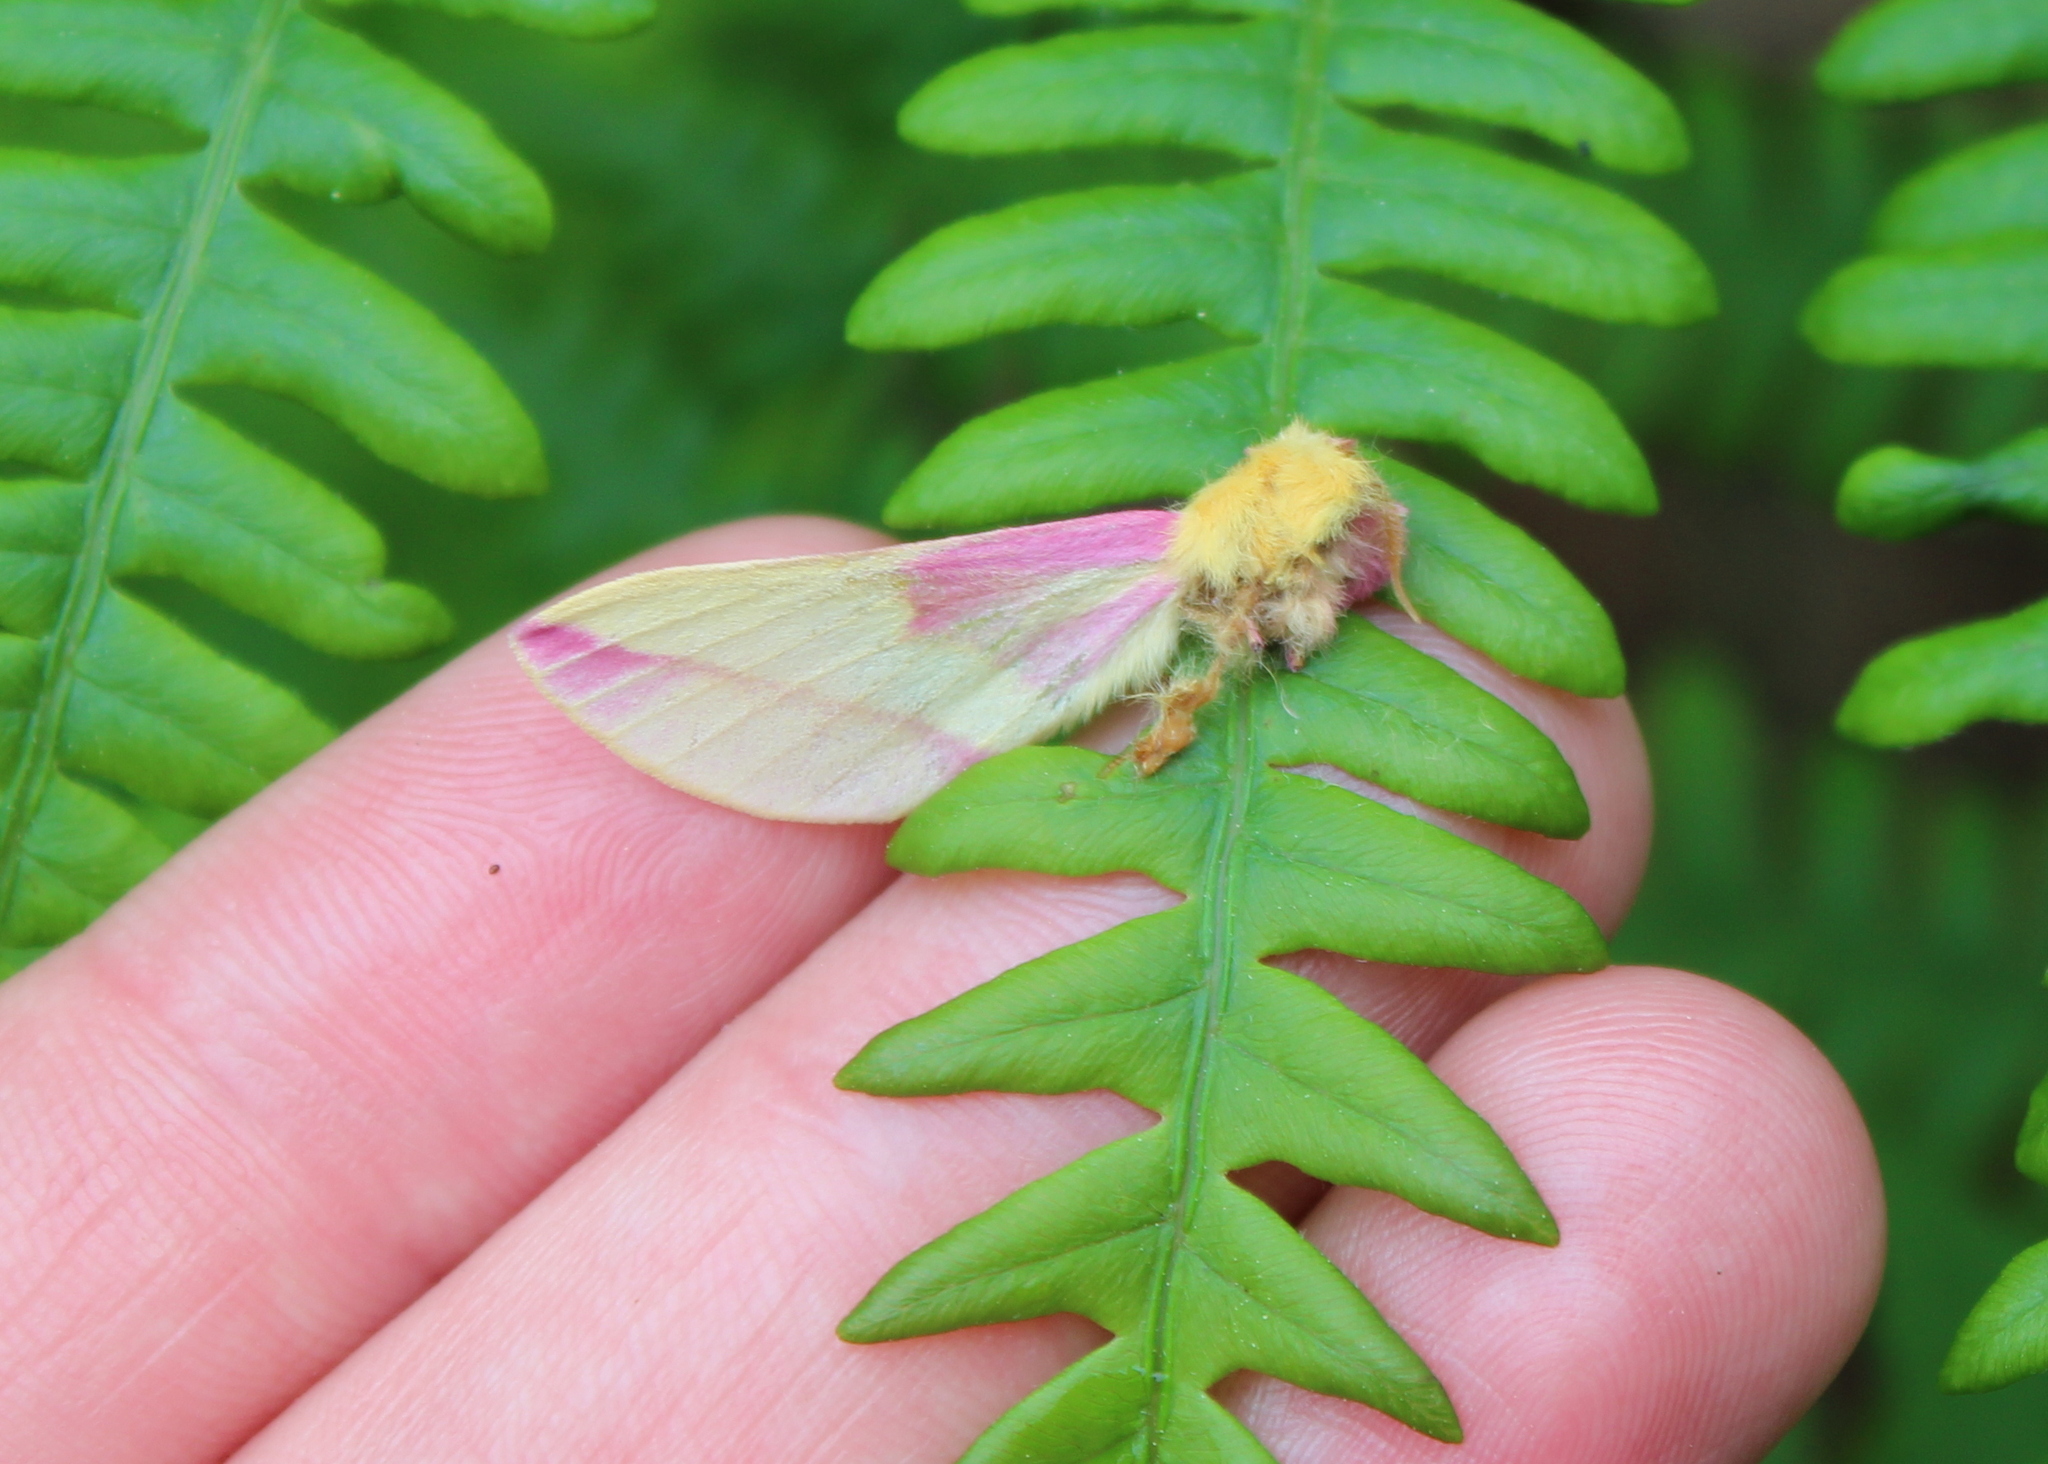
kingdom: Animalia
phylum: Arthropoda
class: Insecta
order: Lepidoptera
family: Saturniidae
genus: Dryocampa
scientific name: Dryocampa rubicunda
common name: Rosy maple moth
